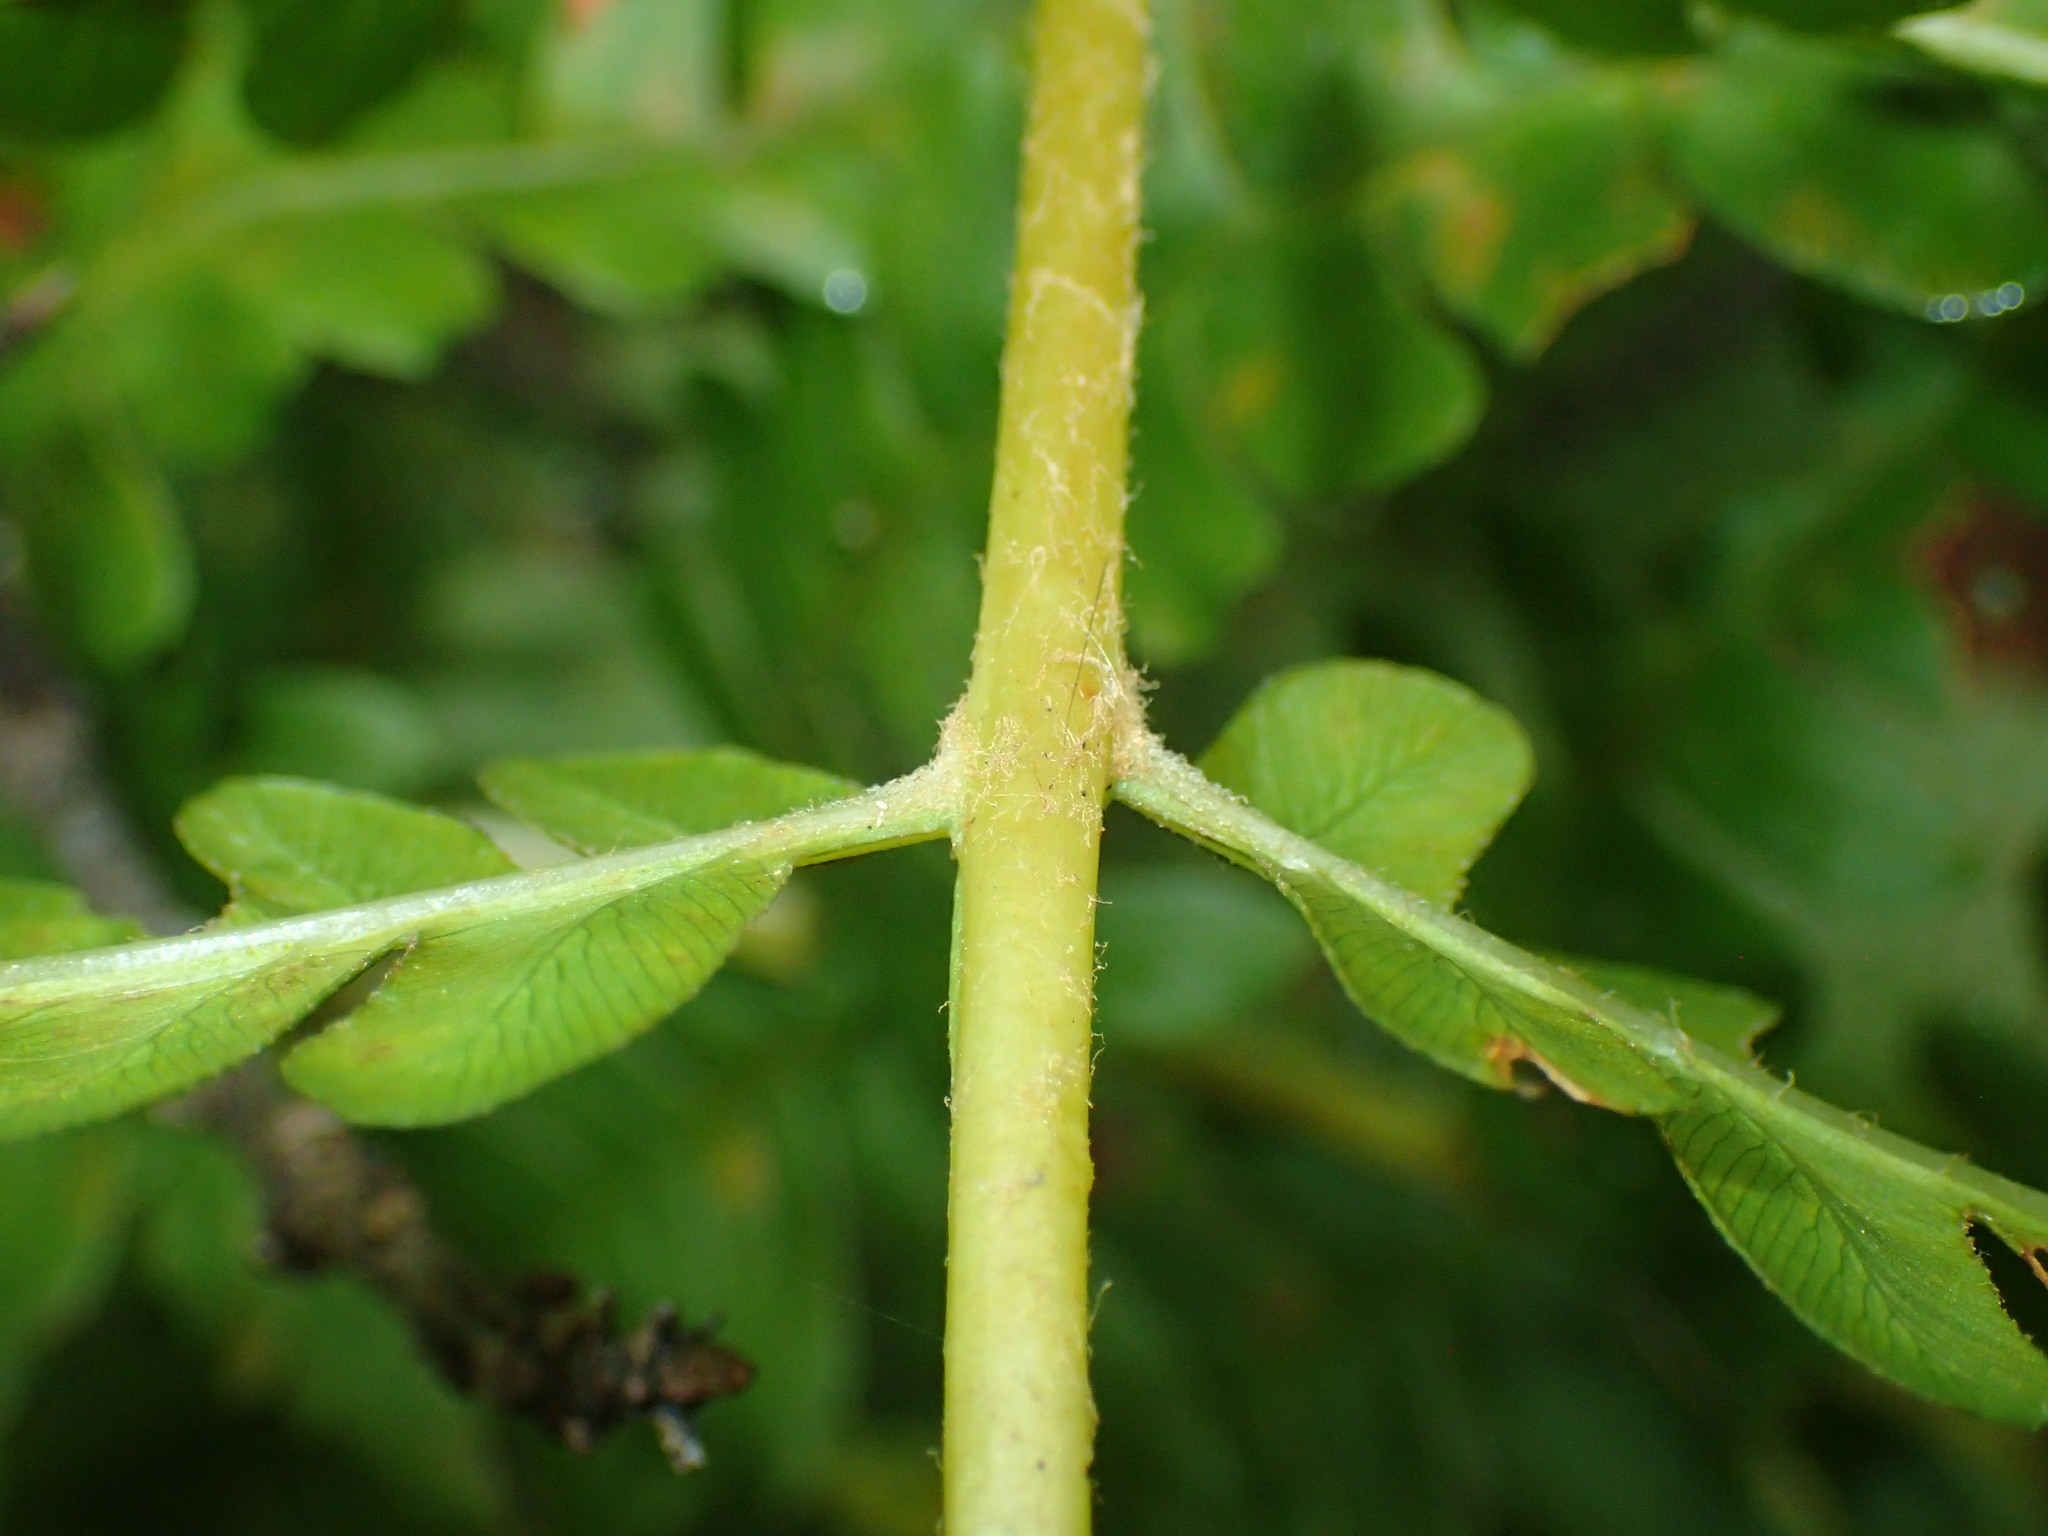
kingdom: Plantae
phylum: Tracheophyta
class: Polypodiopsida
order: Osmundales
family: Osmundaceae
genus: Osmundastrum
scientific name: Osmundastrum cinnamomeum
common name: Cinnamon fern
